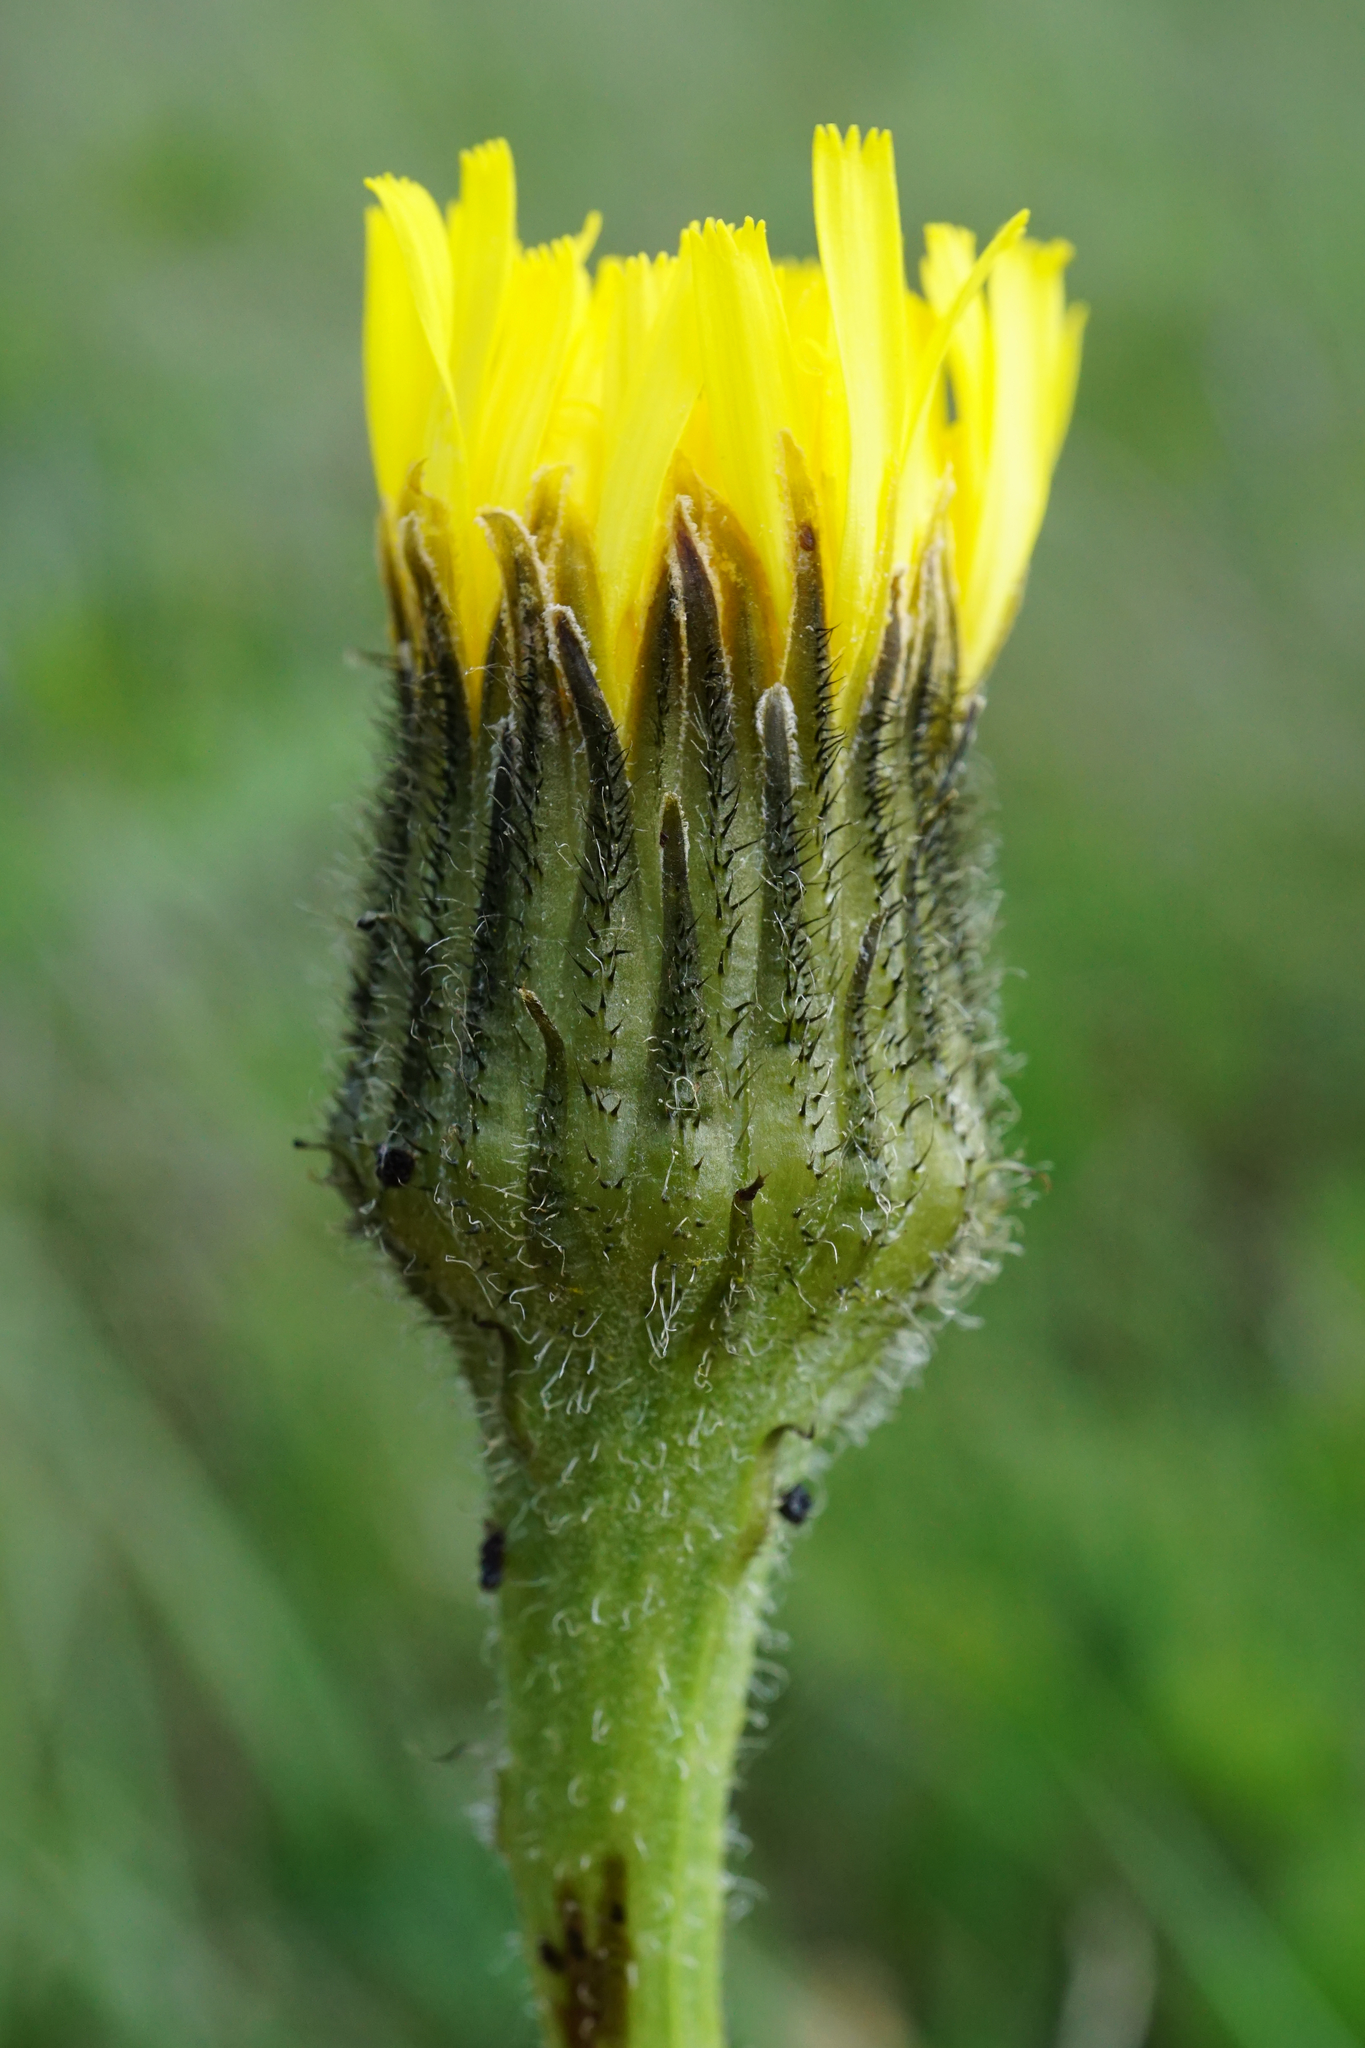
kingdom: Plantae
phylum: Tracheophyta
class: Magnoliopsida
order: Asterales
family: Asteraceae
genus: Trommsdorffia
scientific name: Trommsdorffia maculata
